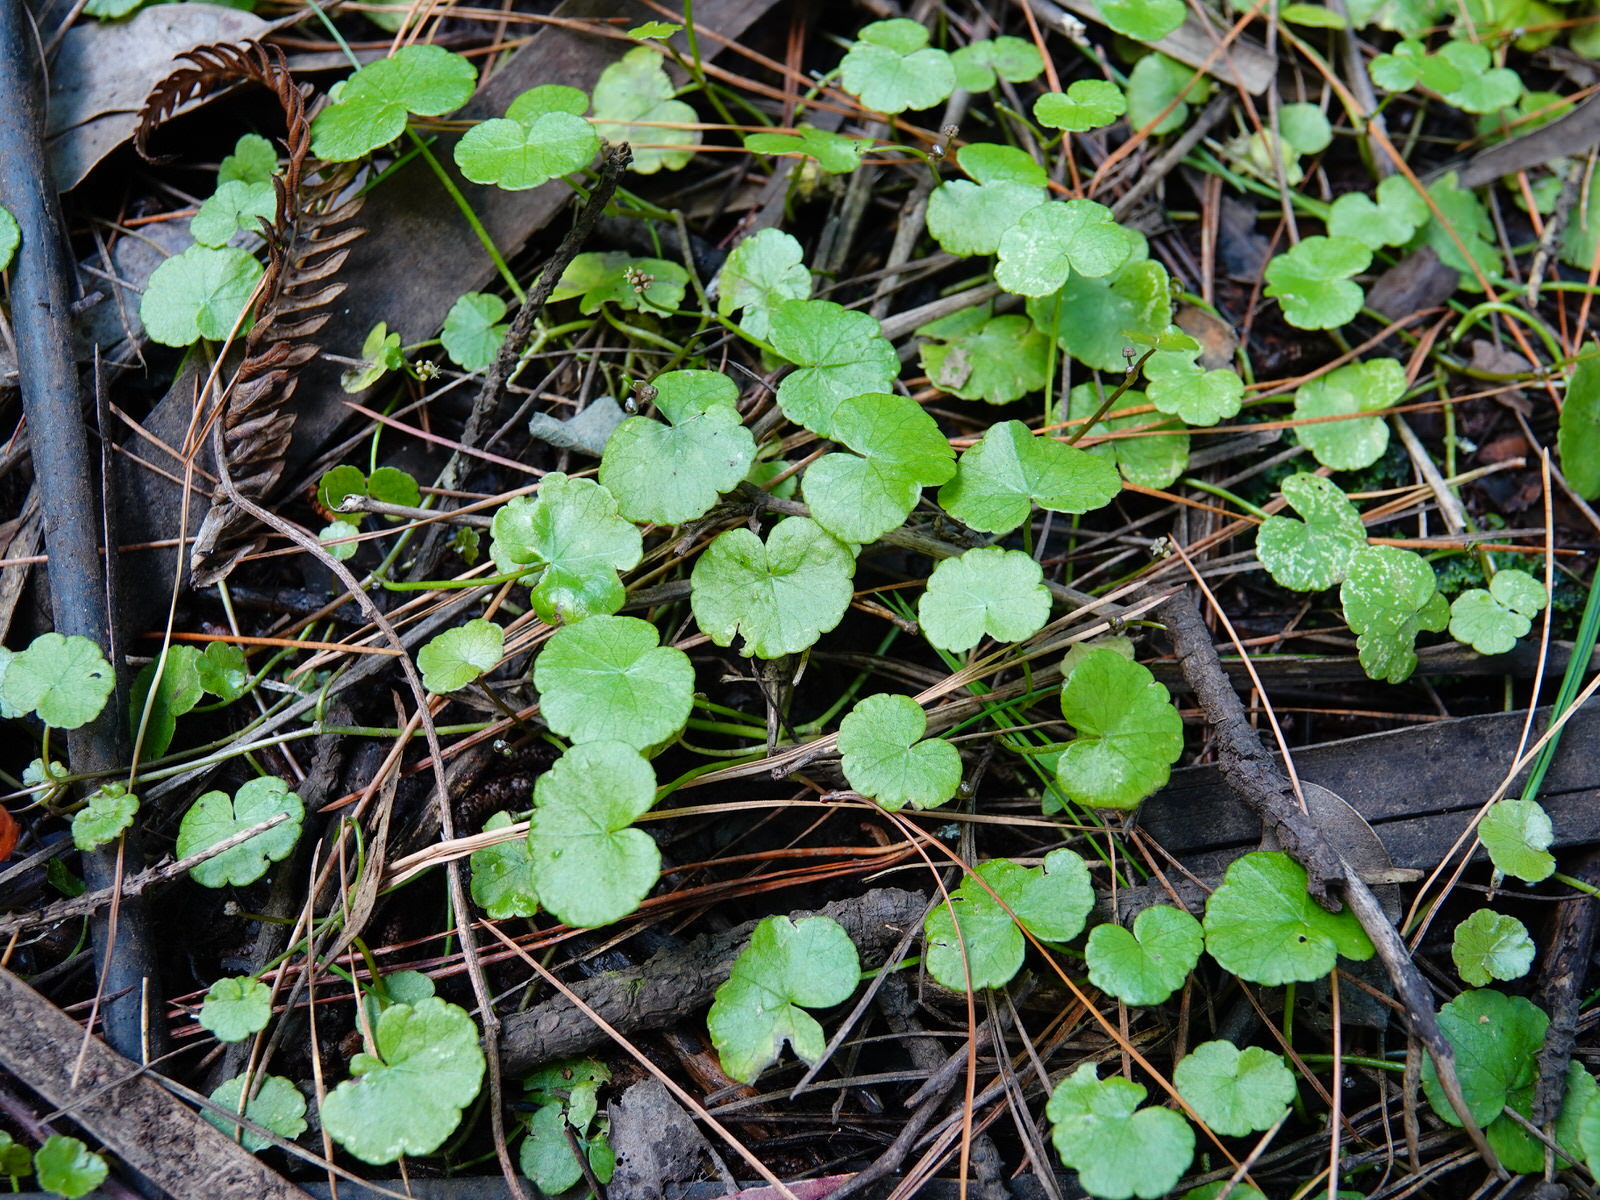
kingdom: Plantae
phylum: Tracheophyta
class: Magnoliopsida
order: Apiales
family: Araliaceae
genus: Hydrocotyle
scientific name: Hydrocotyle pterocarpa
